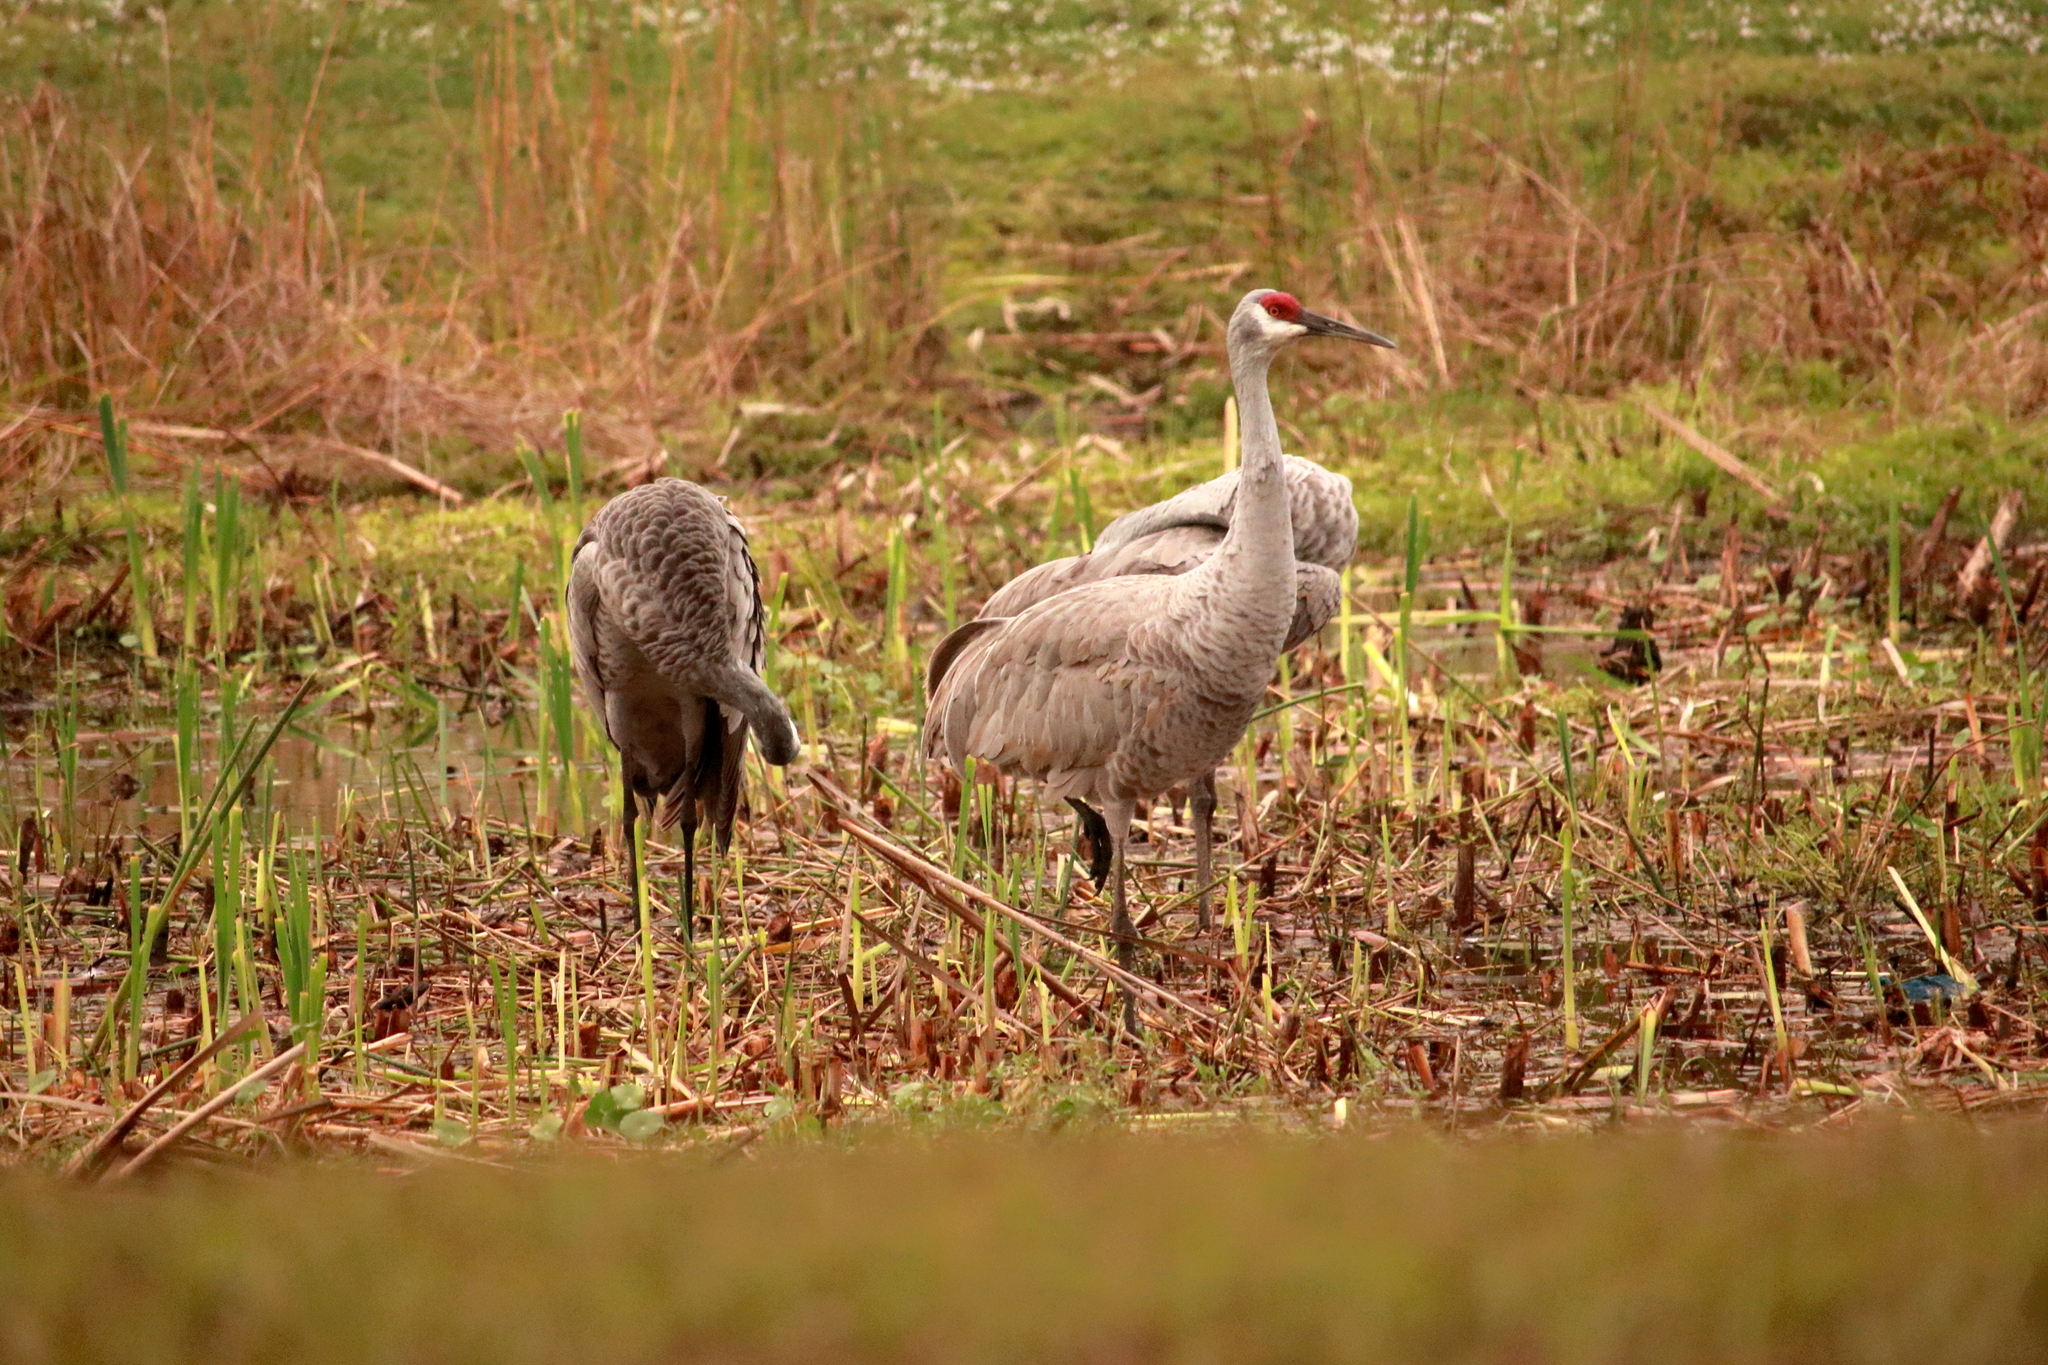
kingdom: Animalia
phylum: Chordata
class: Aves
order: Gruiformes
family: Gruidae
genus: Grus
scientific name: Grus canadensis
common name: Sandhill crane
